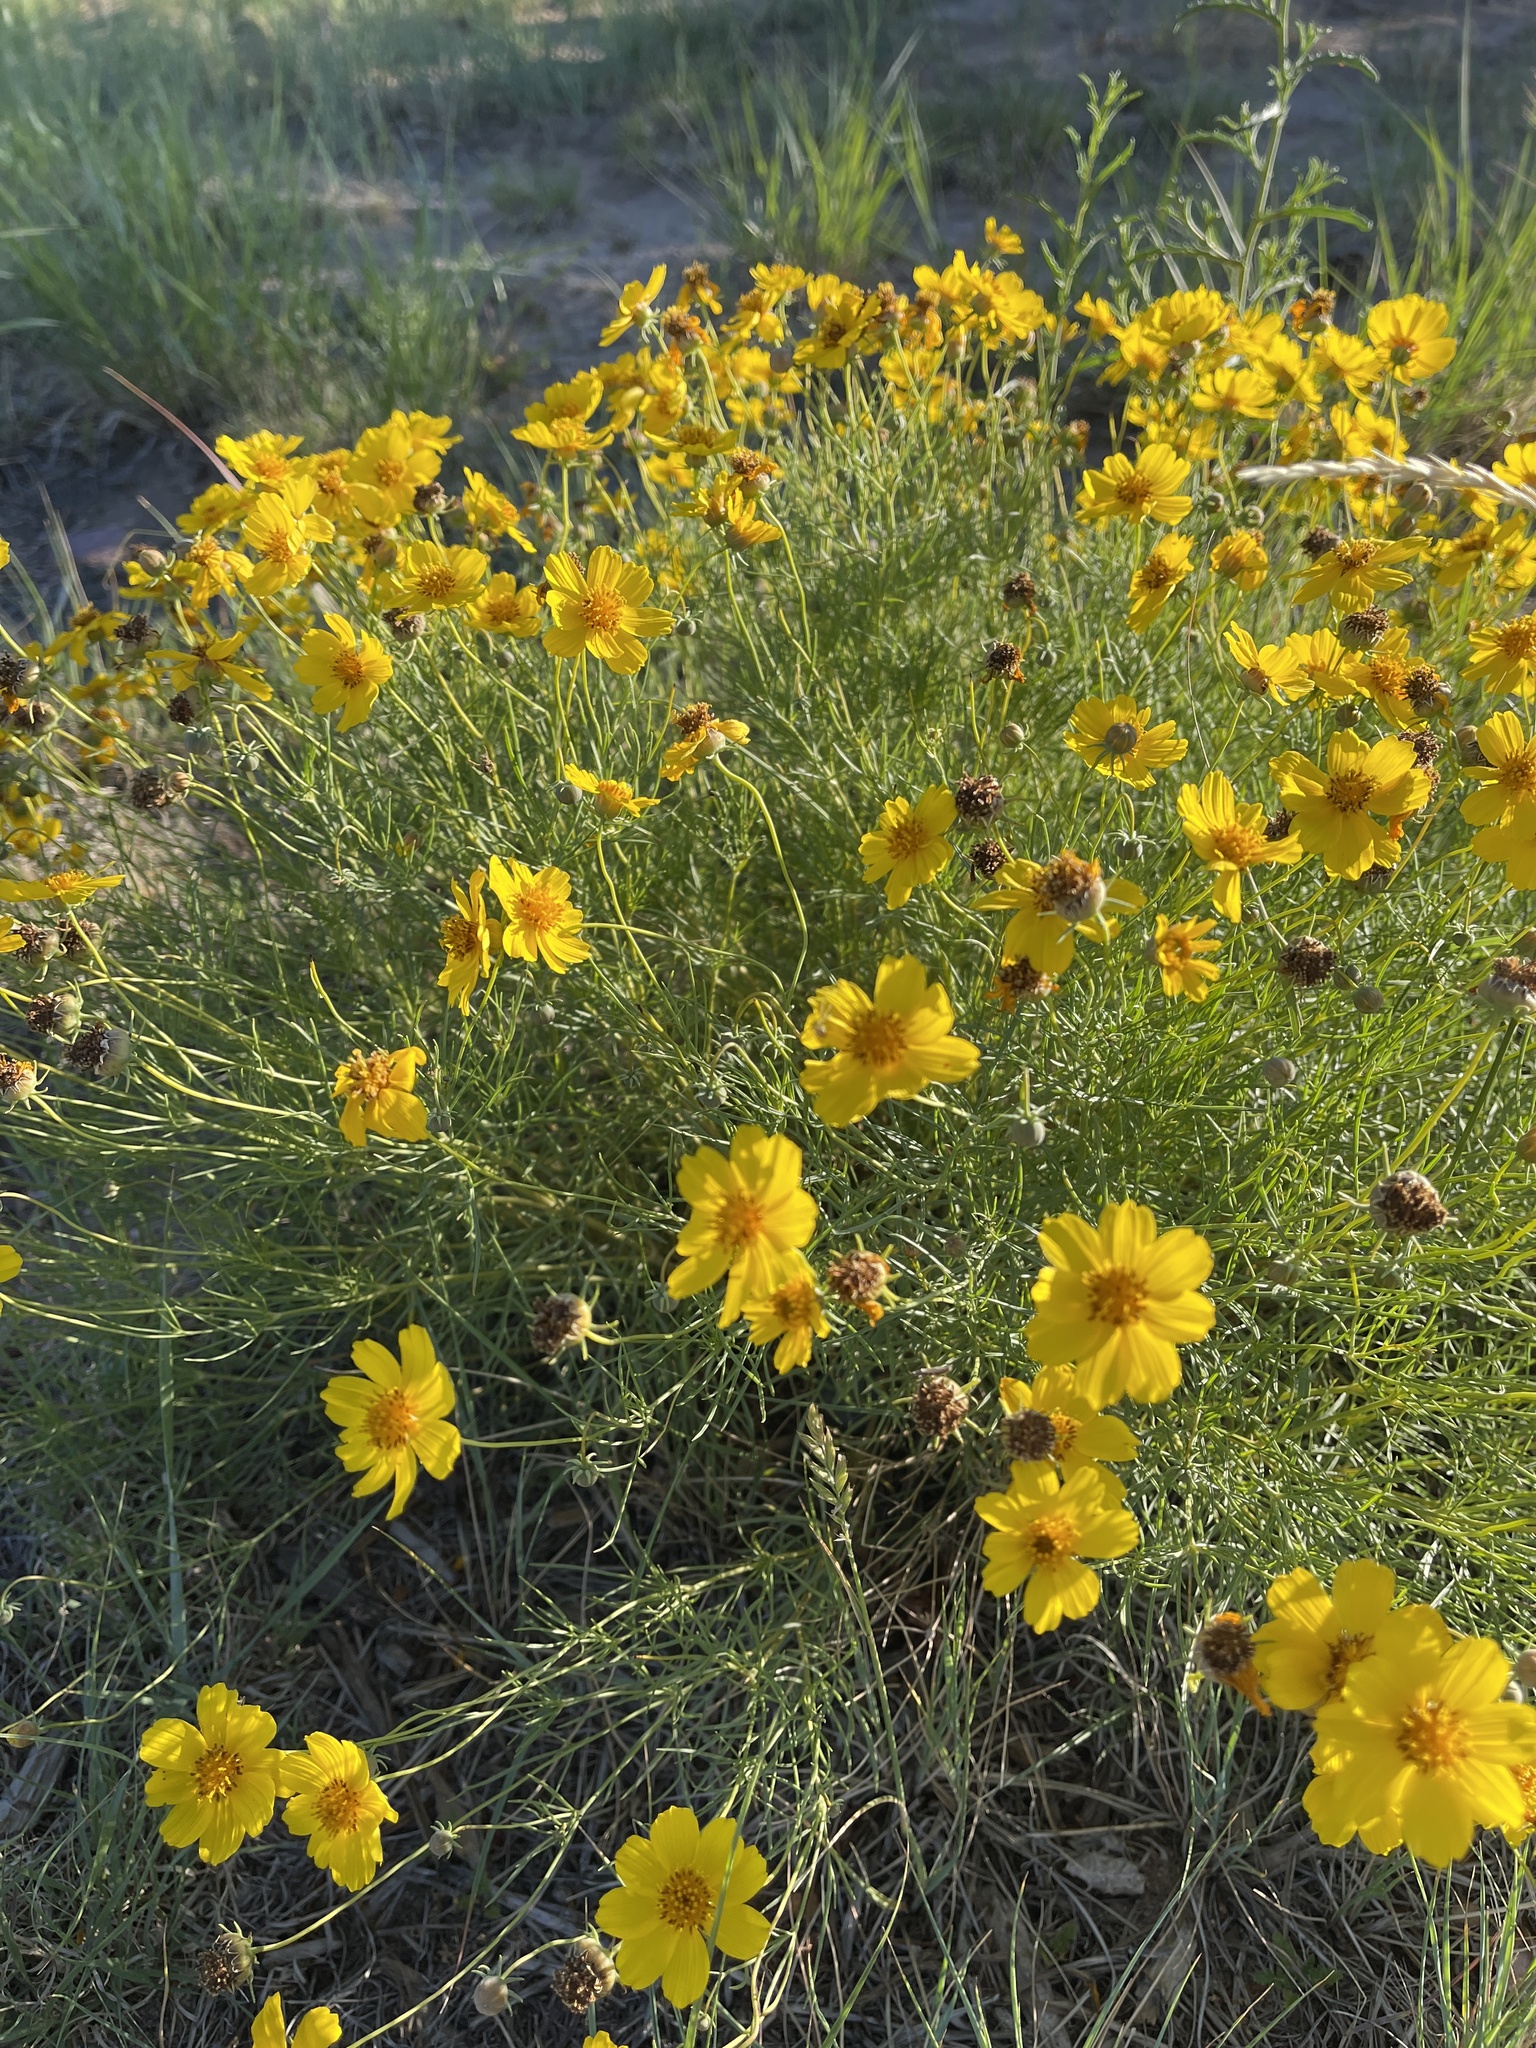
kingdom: Plantae
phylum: Tracheophyta
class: Magnoliopsida
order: Asterales
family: Asteraceae
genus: Thelesperma
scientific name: Thelesperma filifolium
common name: Stiff greenthread
